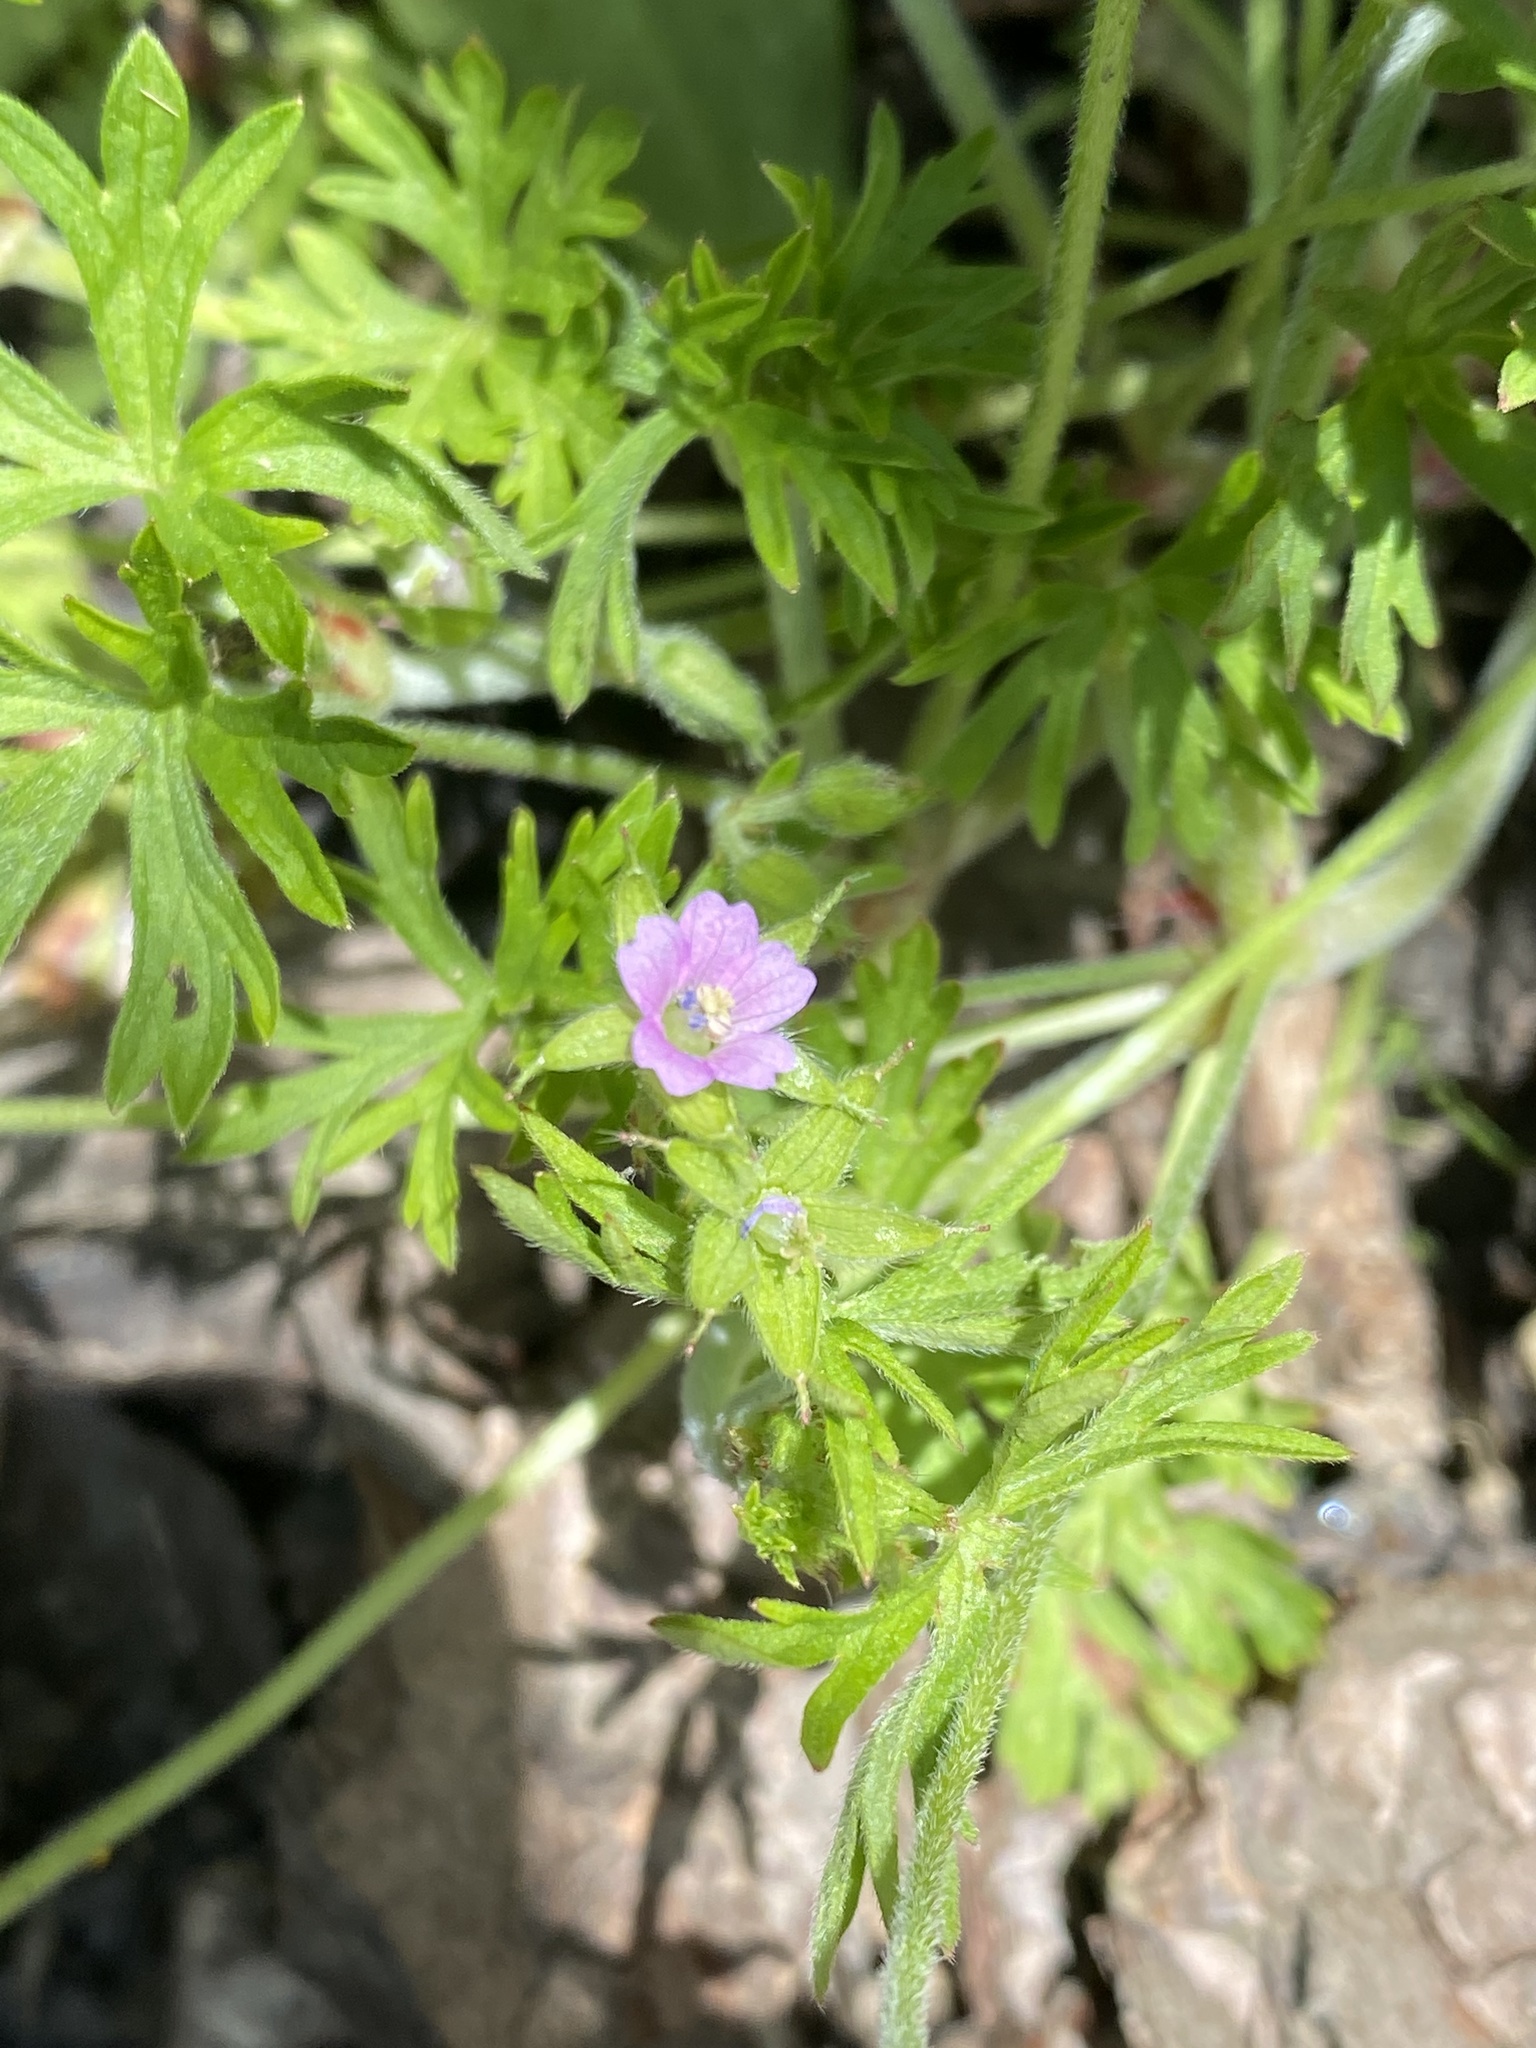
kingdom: Plantae
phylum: Tracheophyta
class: Magnoliopsida
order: Geraniales
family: Geraniaceae
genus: Geranium
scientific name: Geranium dissectum
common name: Cut-leaved crane's-bill
